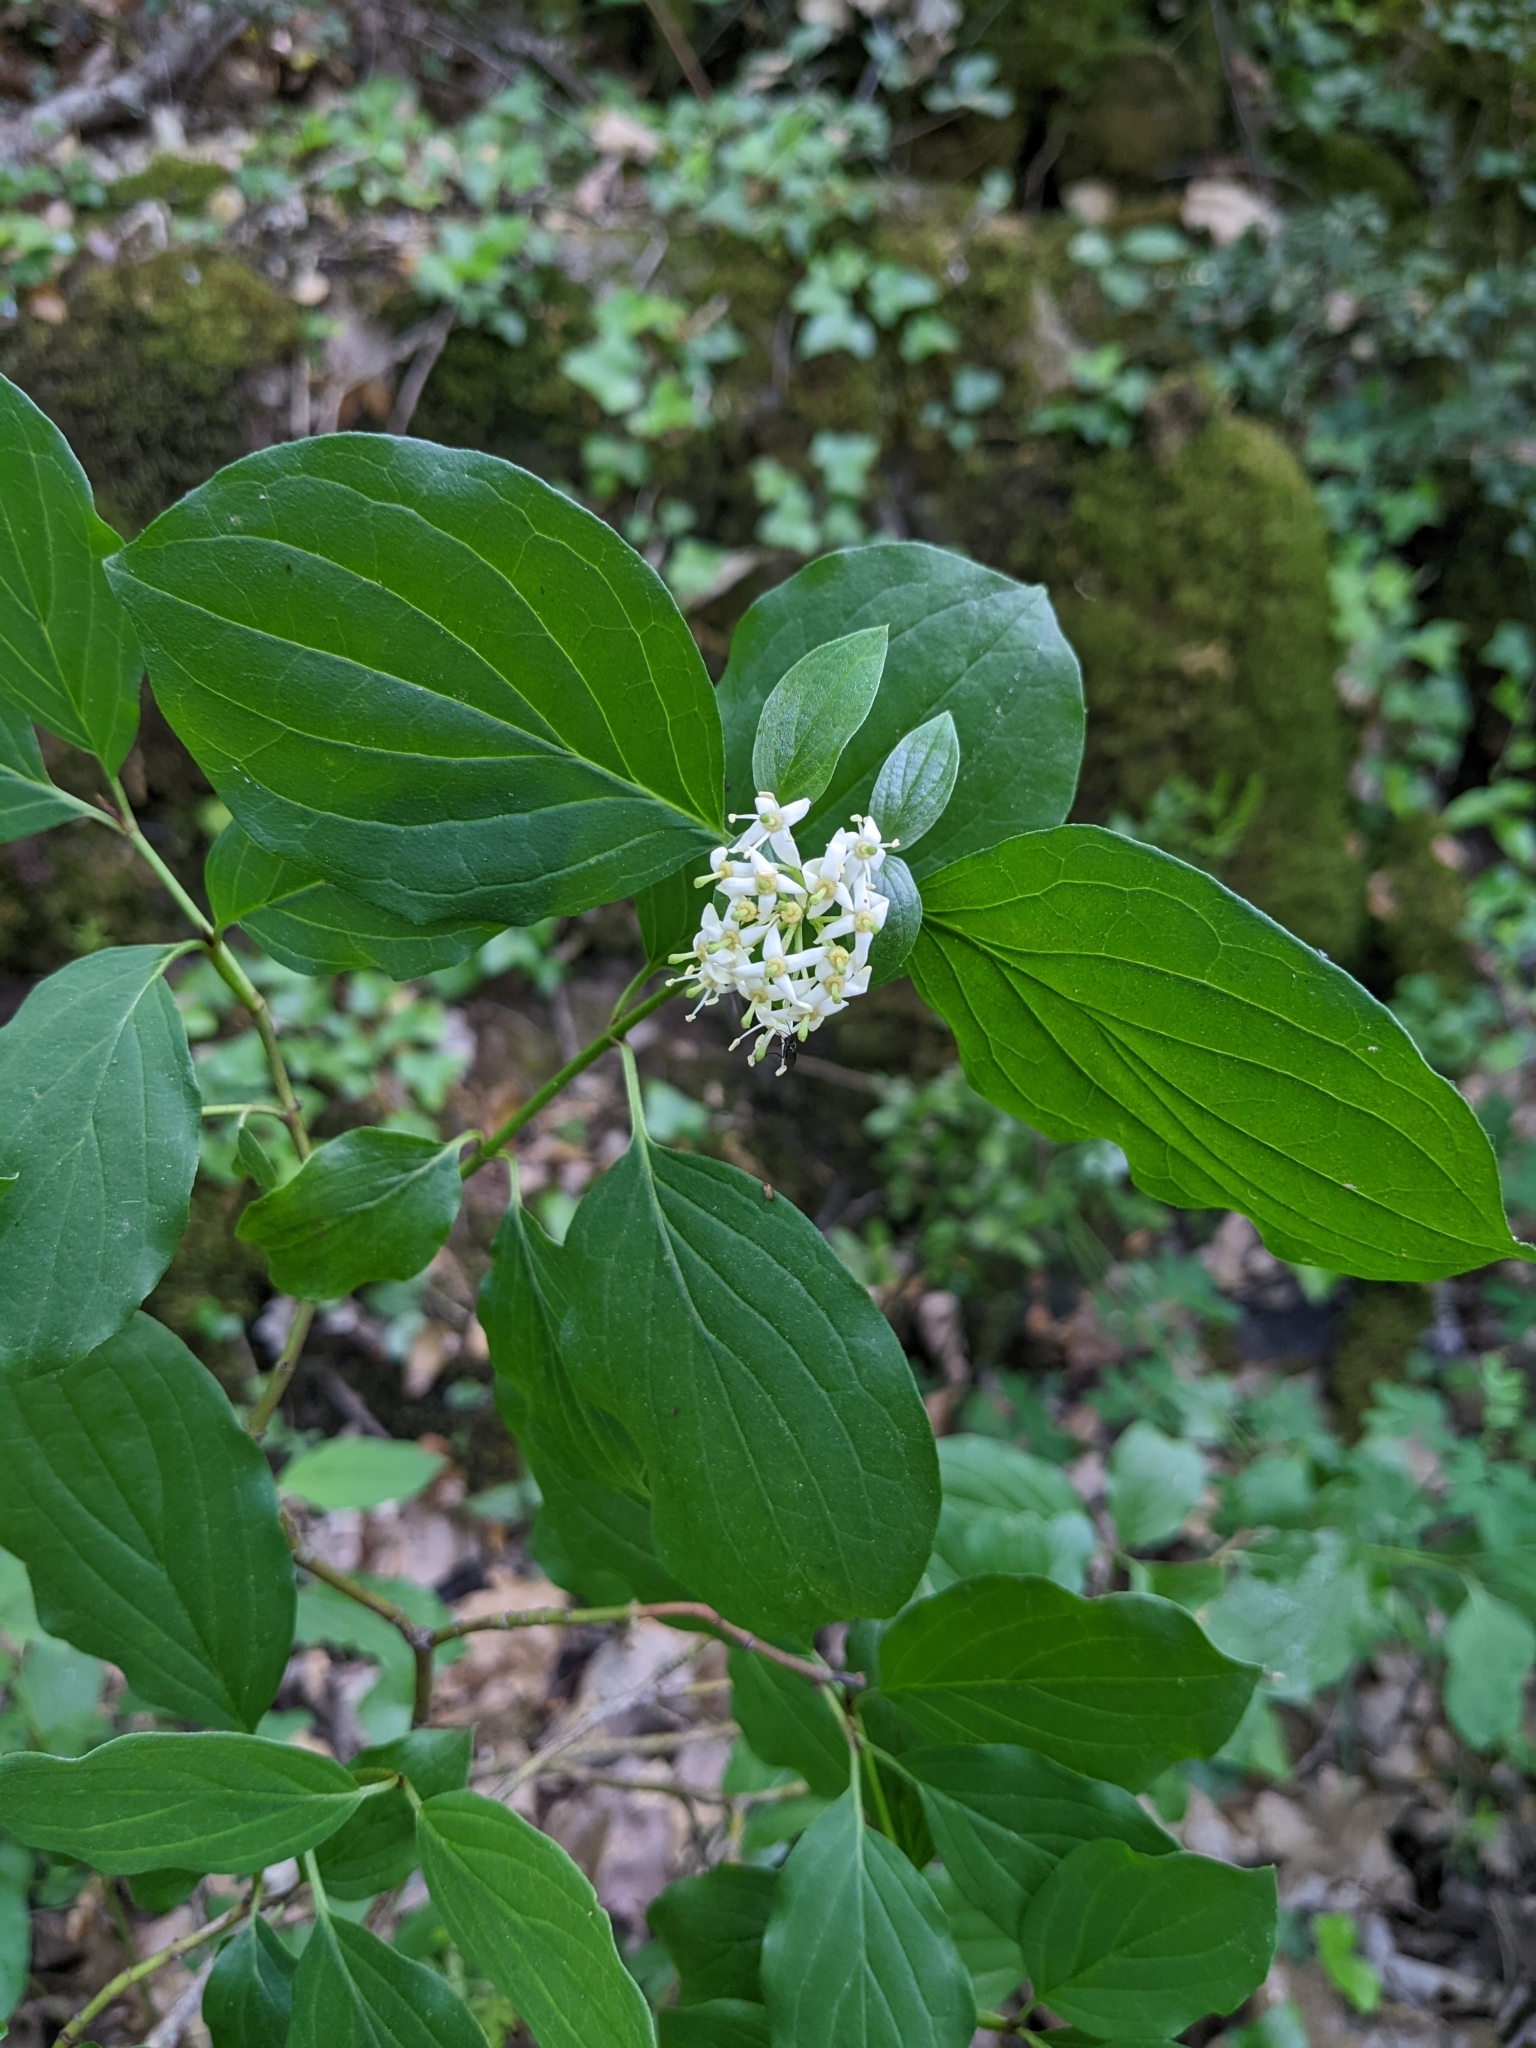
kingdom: Plantae
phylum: Tracheophyta
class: Magnoliopsida
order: Cornales
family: Cornaceae
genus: Cornus
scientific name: Cornus sanguinea
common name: Dogwood
